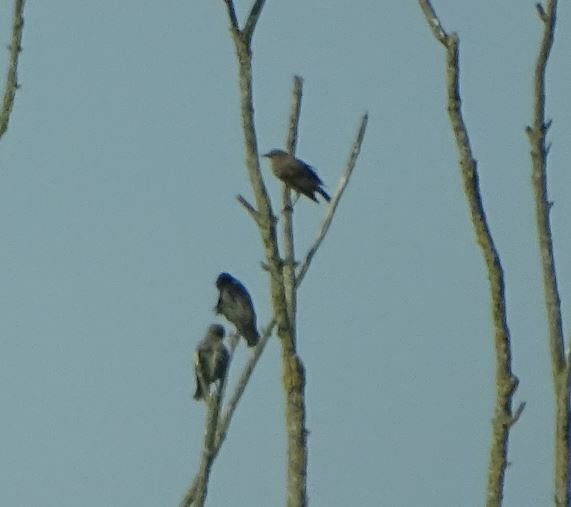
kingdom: Animalia
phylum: Chordata
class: Aves
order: Passeriformes
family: Sturnidae
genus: Sturnus
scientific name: Sturnus vulgaris
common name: Common starling
